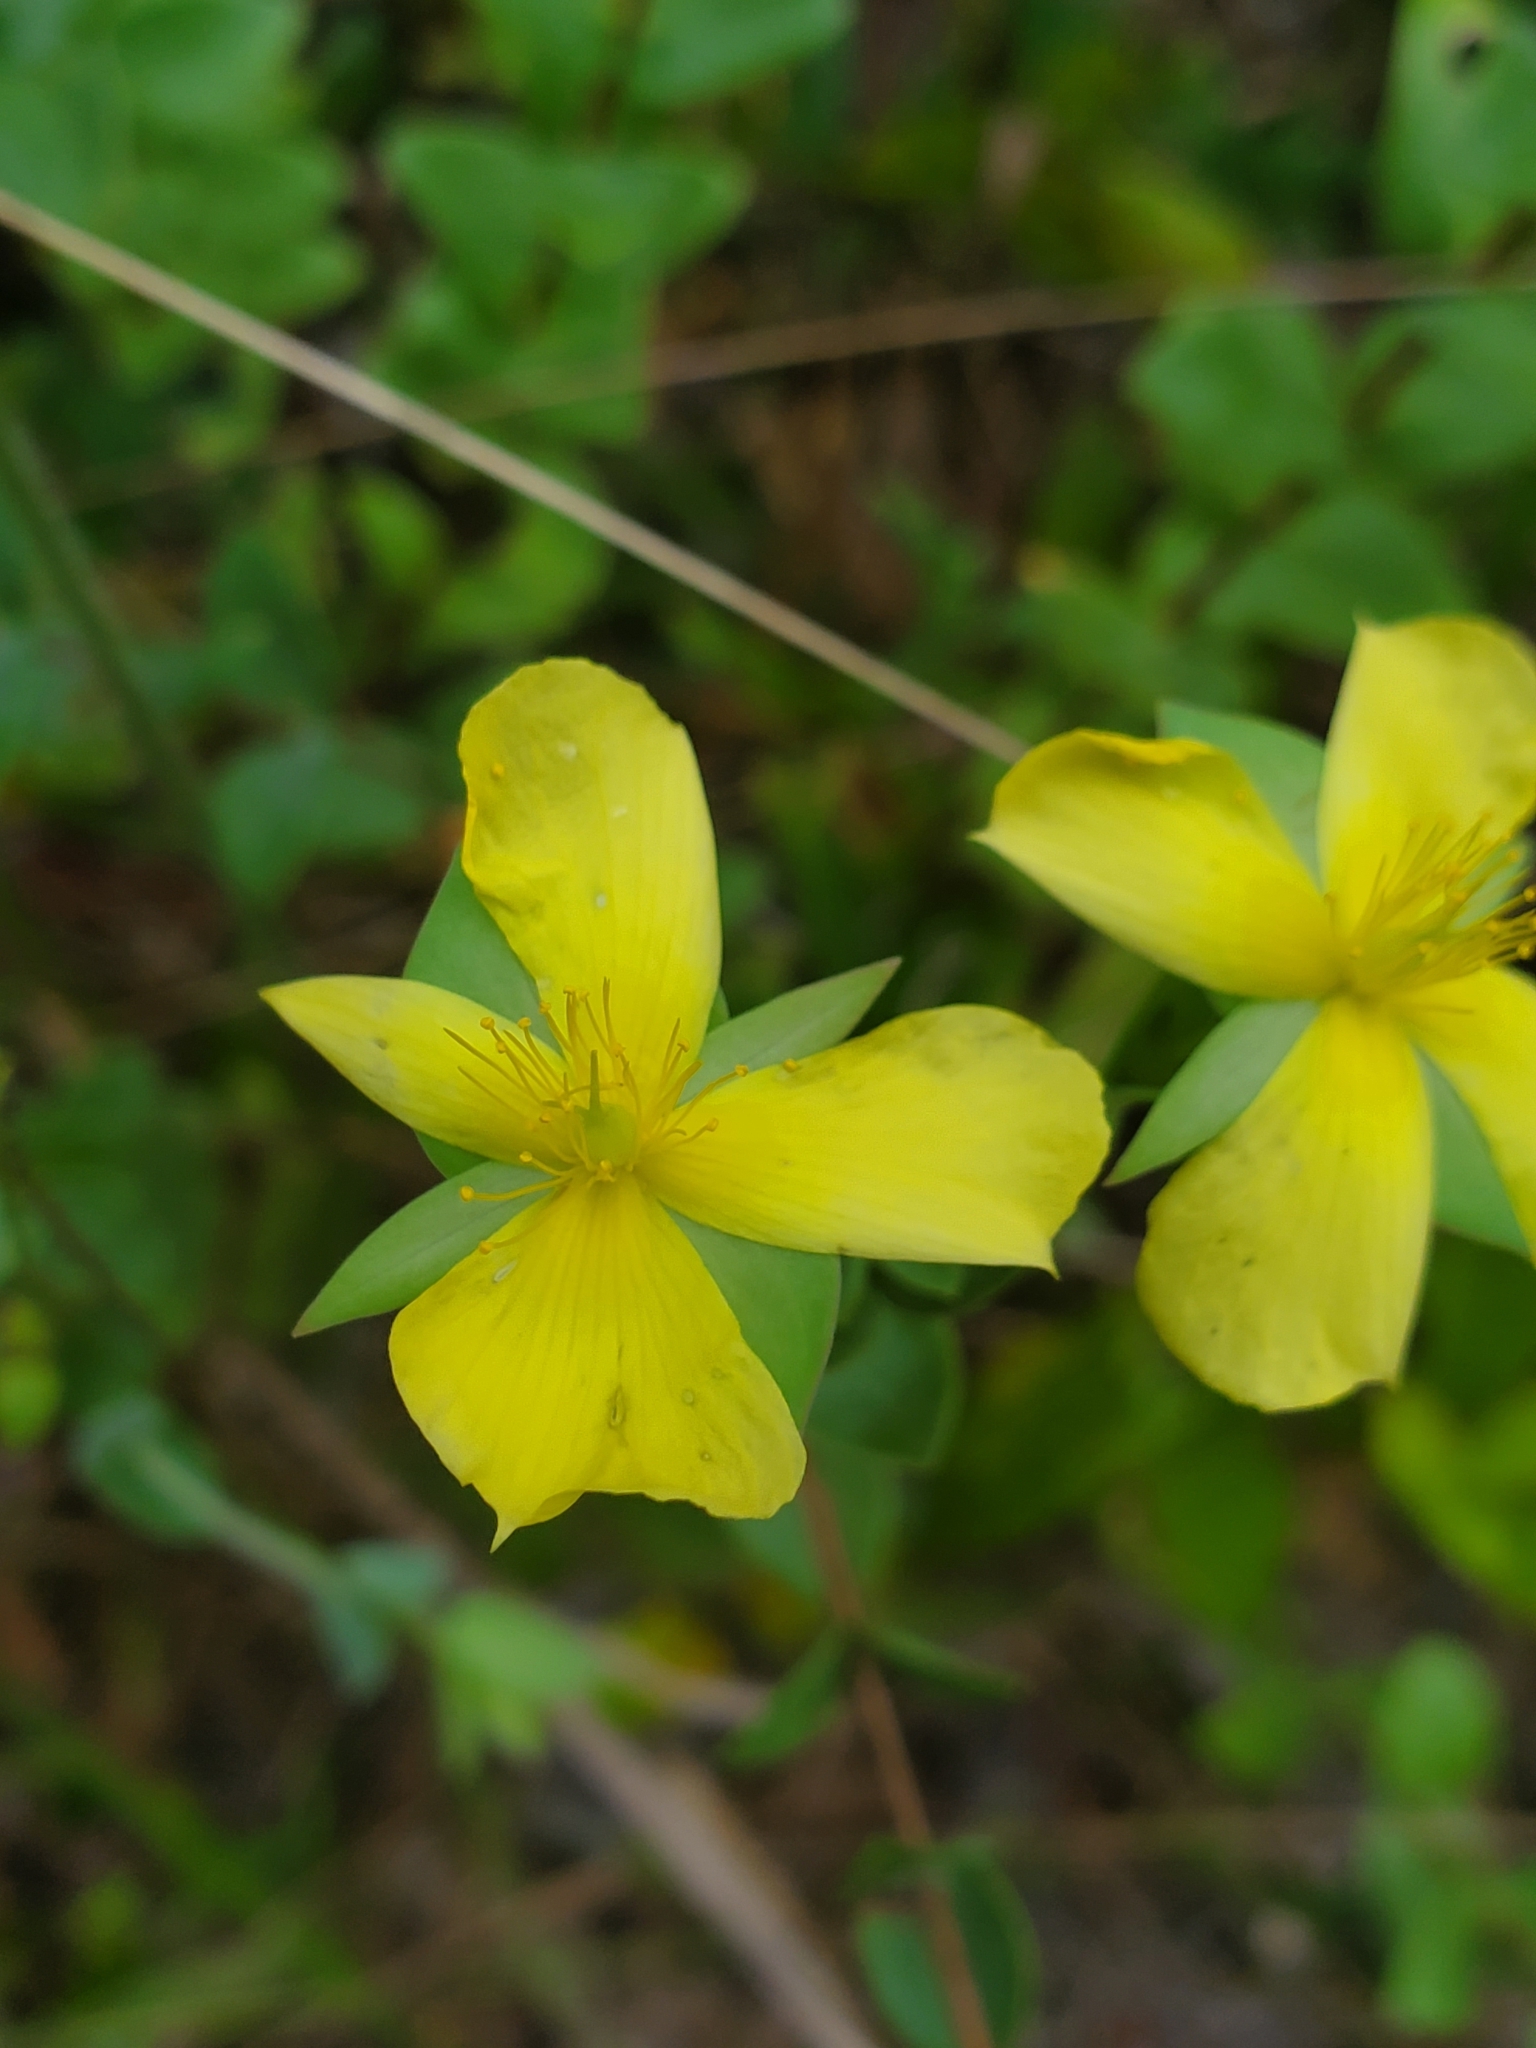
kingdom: Plantae
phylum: Tracheophyta
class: Magnoliopsida
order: Malpighiales
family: Hypericaceae
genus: Hypericum
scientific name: Hypericum tetrapetalum
